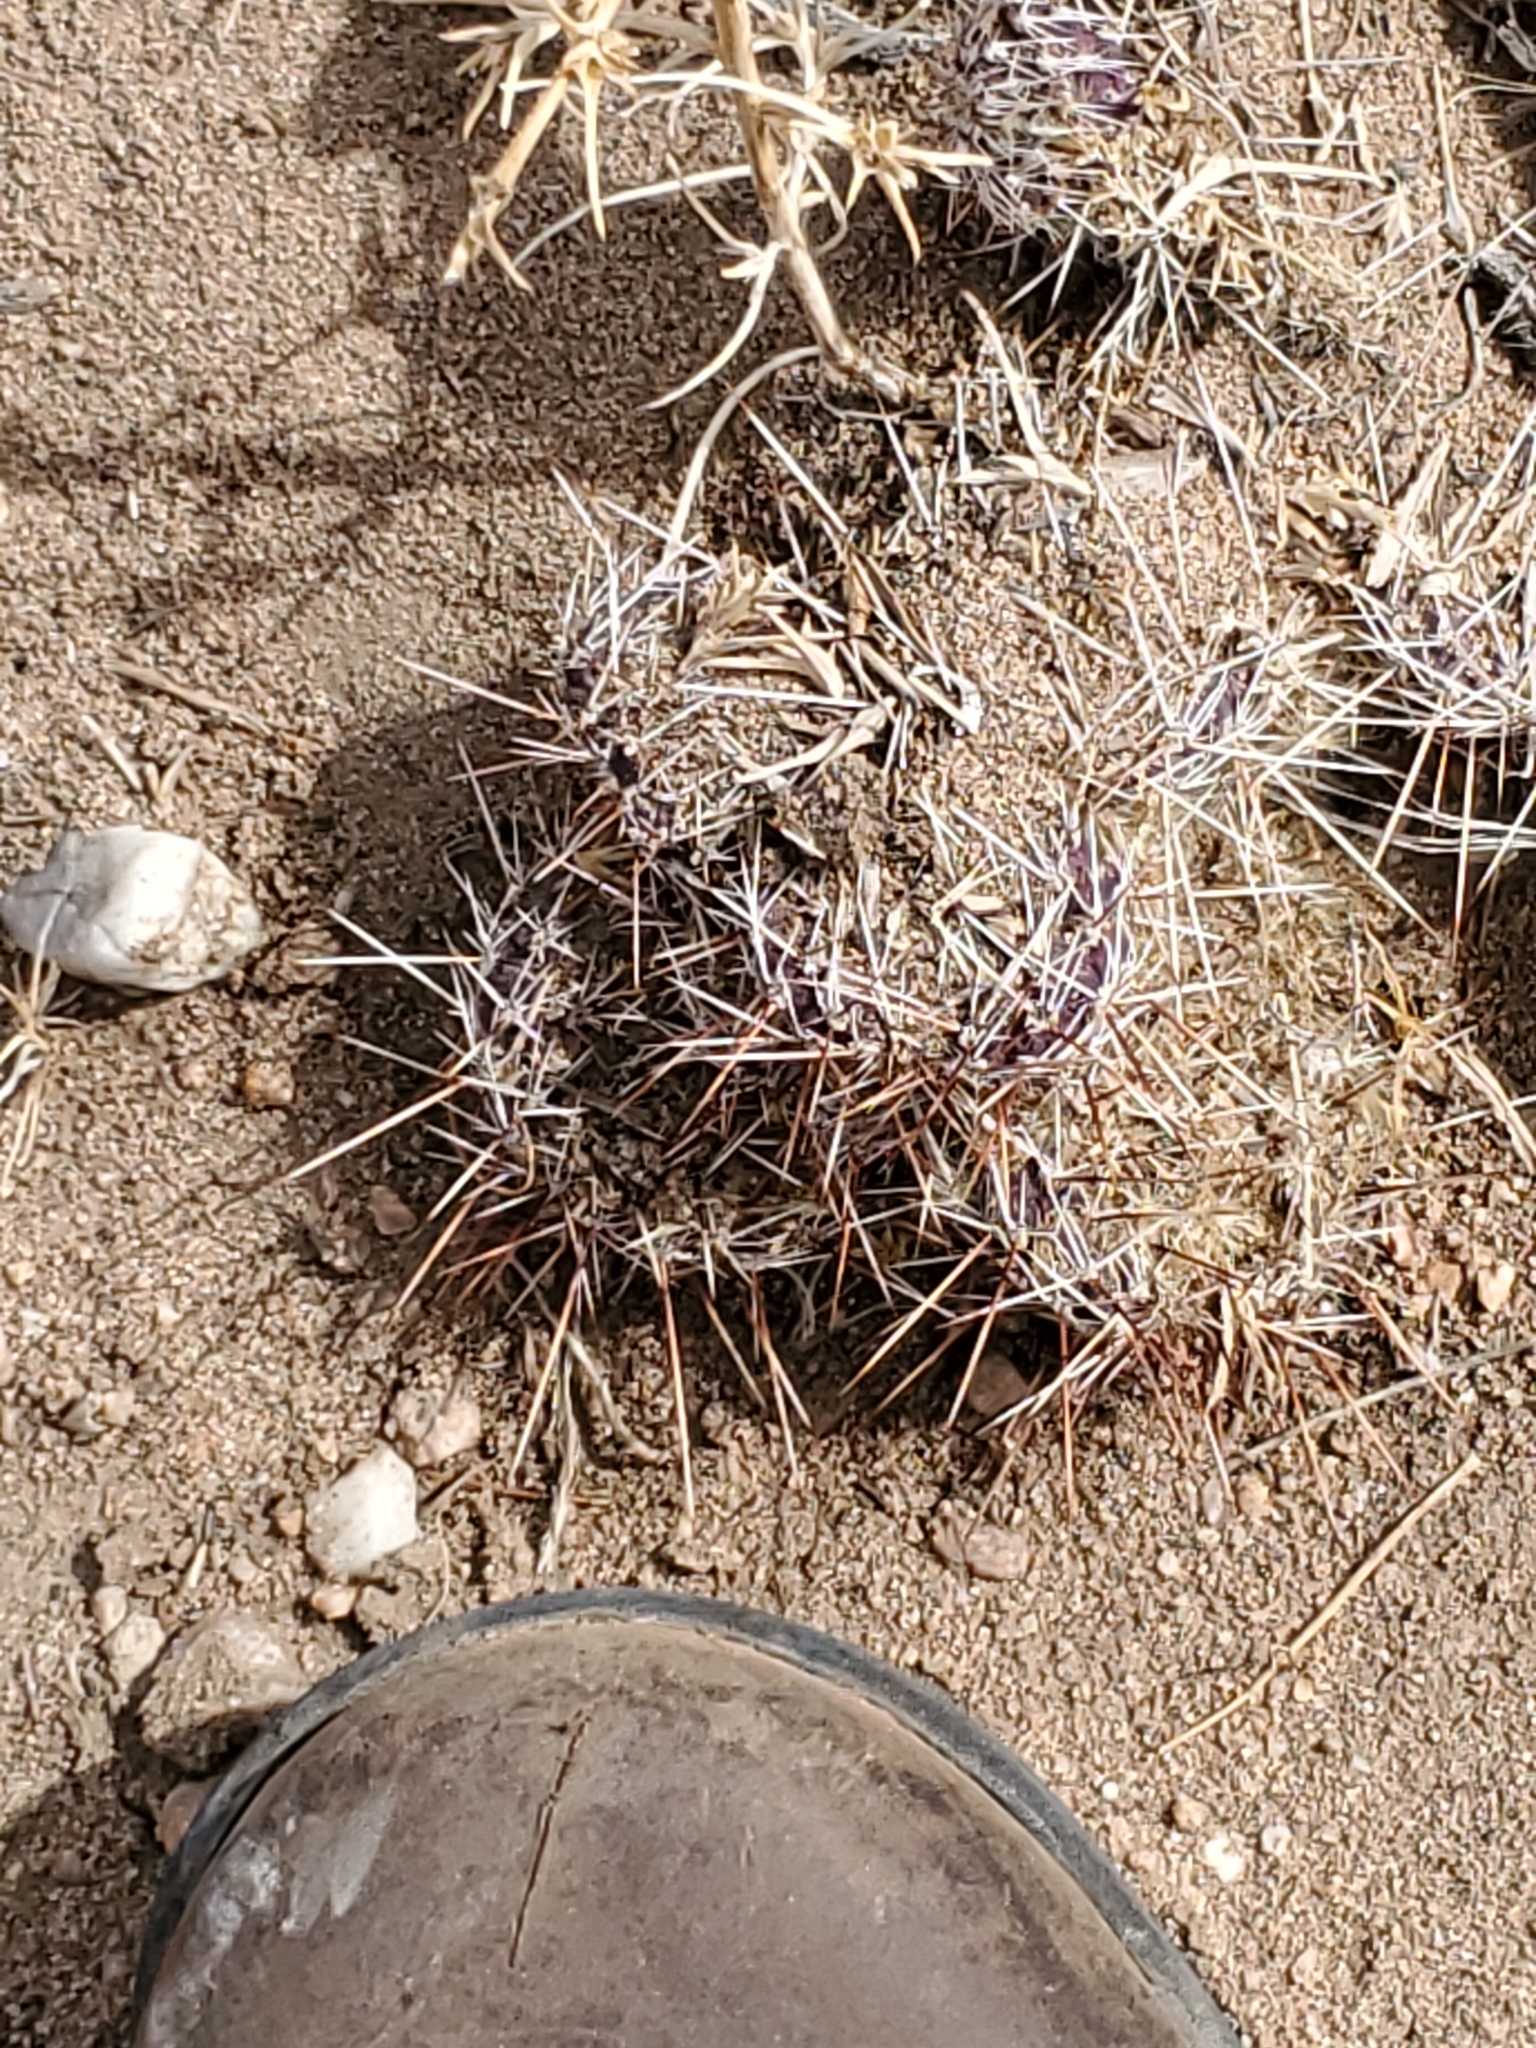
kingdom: Plantae
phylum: Tracheophyta
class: Magnoliopsida
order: Caryophyllales
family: Cactaceae
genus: Opuntia
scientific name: Opuntia polyacantha
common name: Plains prickly-pear
